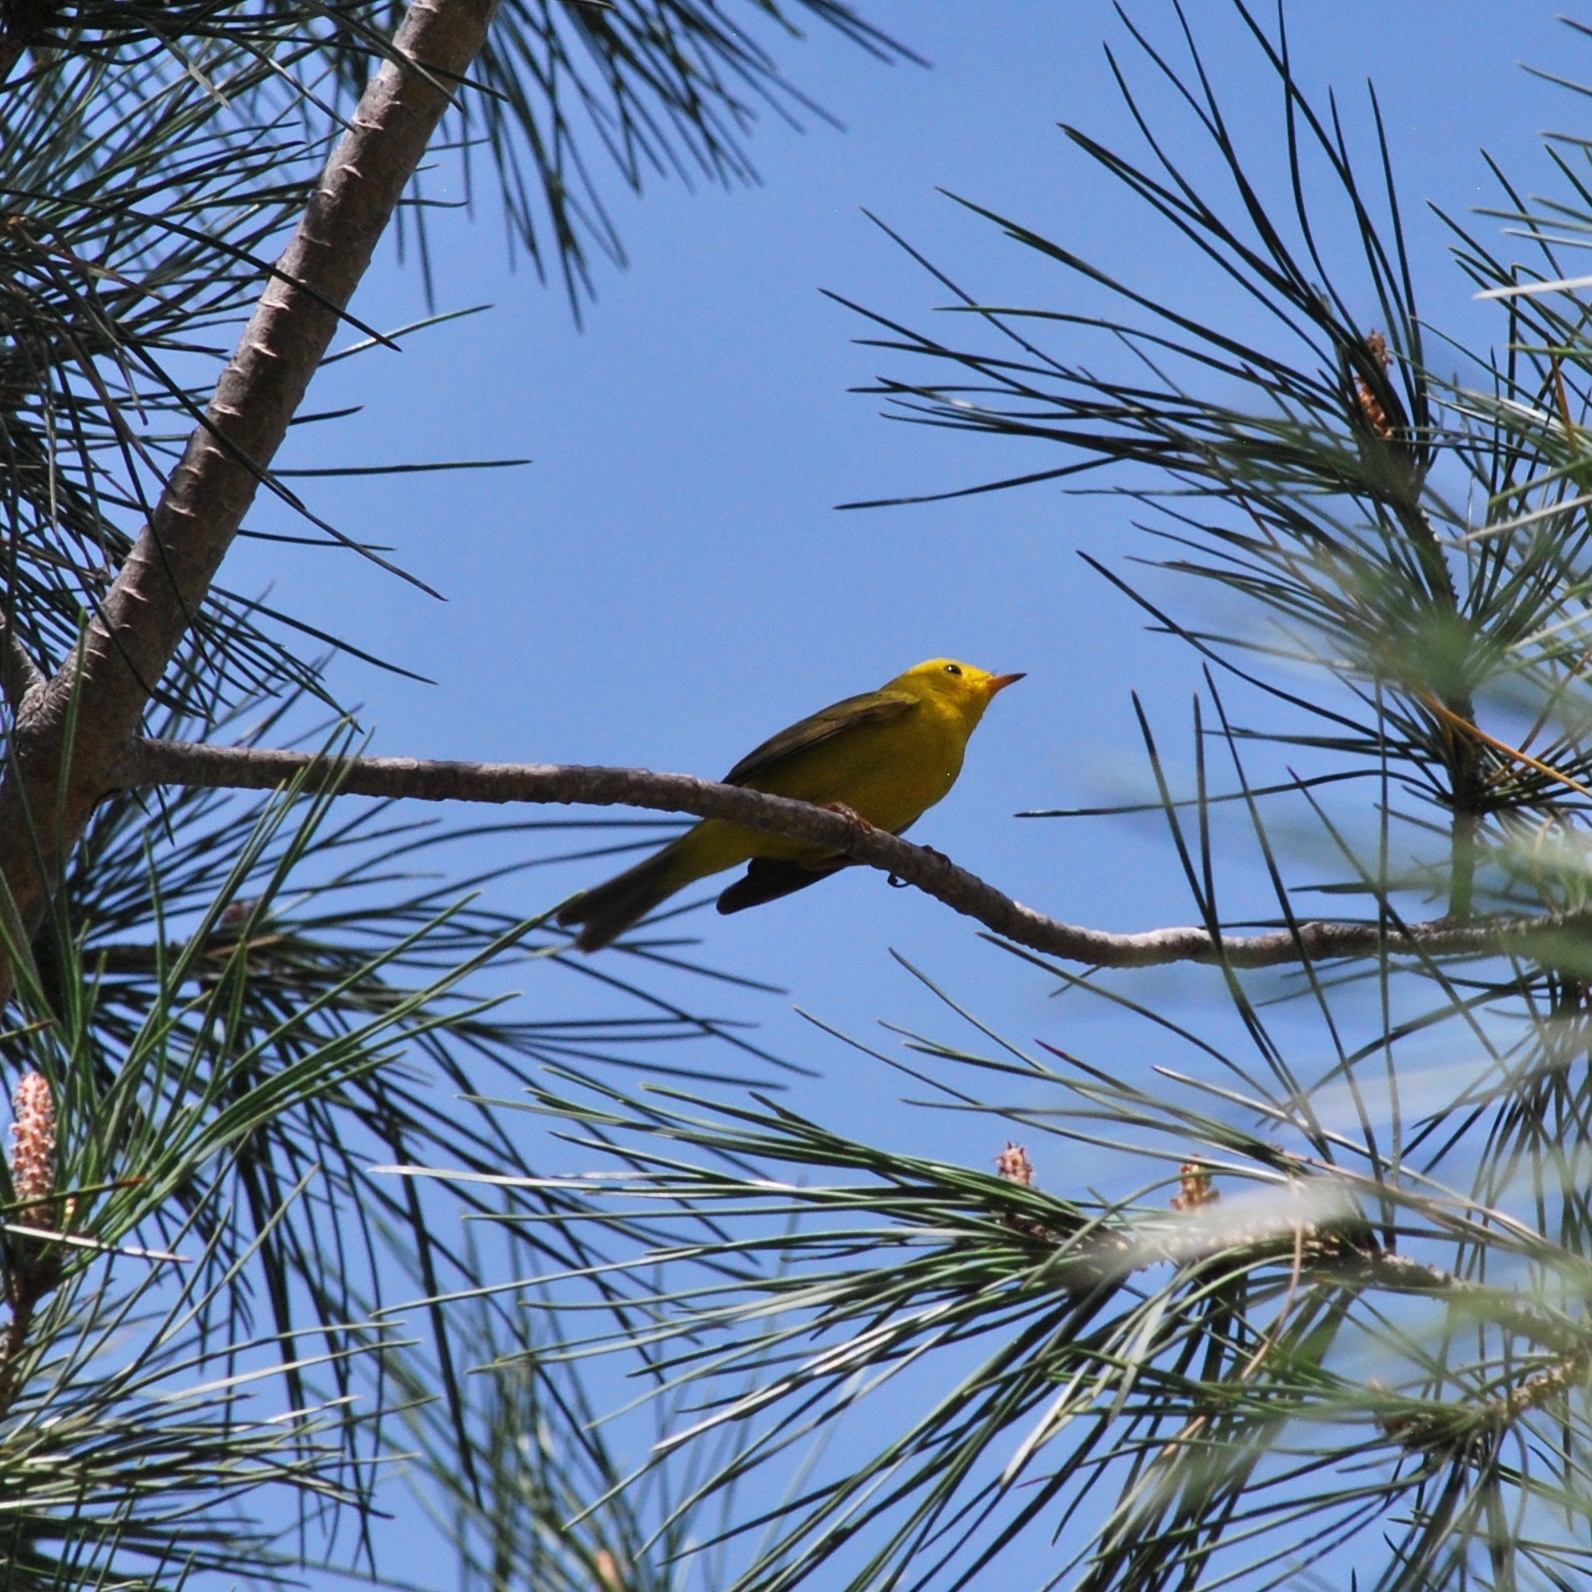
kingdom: Animalia
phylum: Chordata
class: Aves
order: Passeriformes
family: Parulidae
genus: Cardellina
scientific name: Cardellina pusilla
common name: Wilson's warbler
